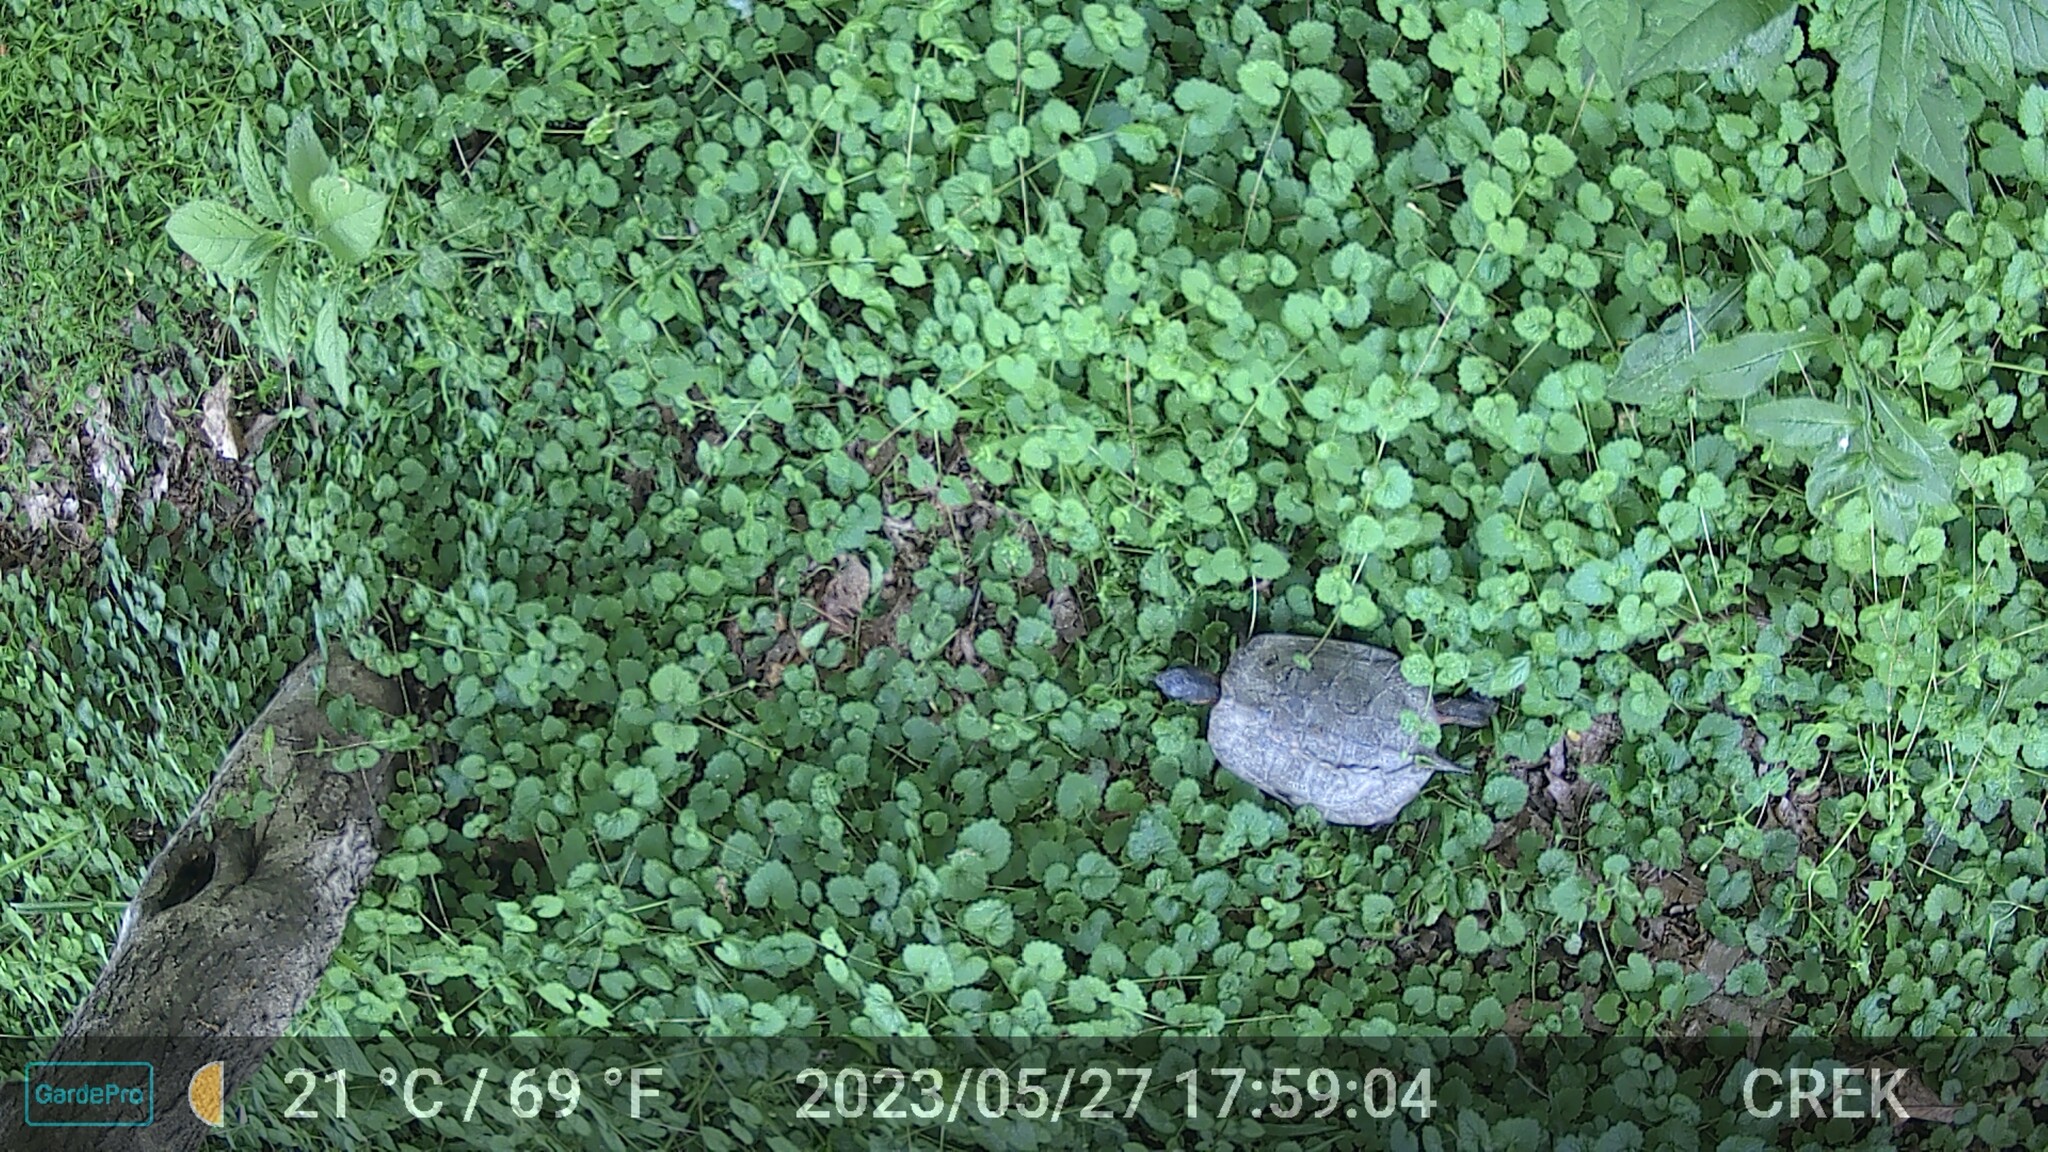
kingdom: Animalia
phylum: Chordata
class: Testudines
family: Emydidae
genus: Glyptemys
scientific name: Glyptemys insculpta
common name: Wood turtle
